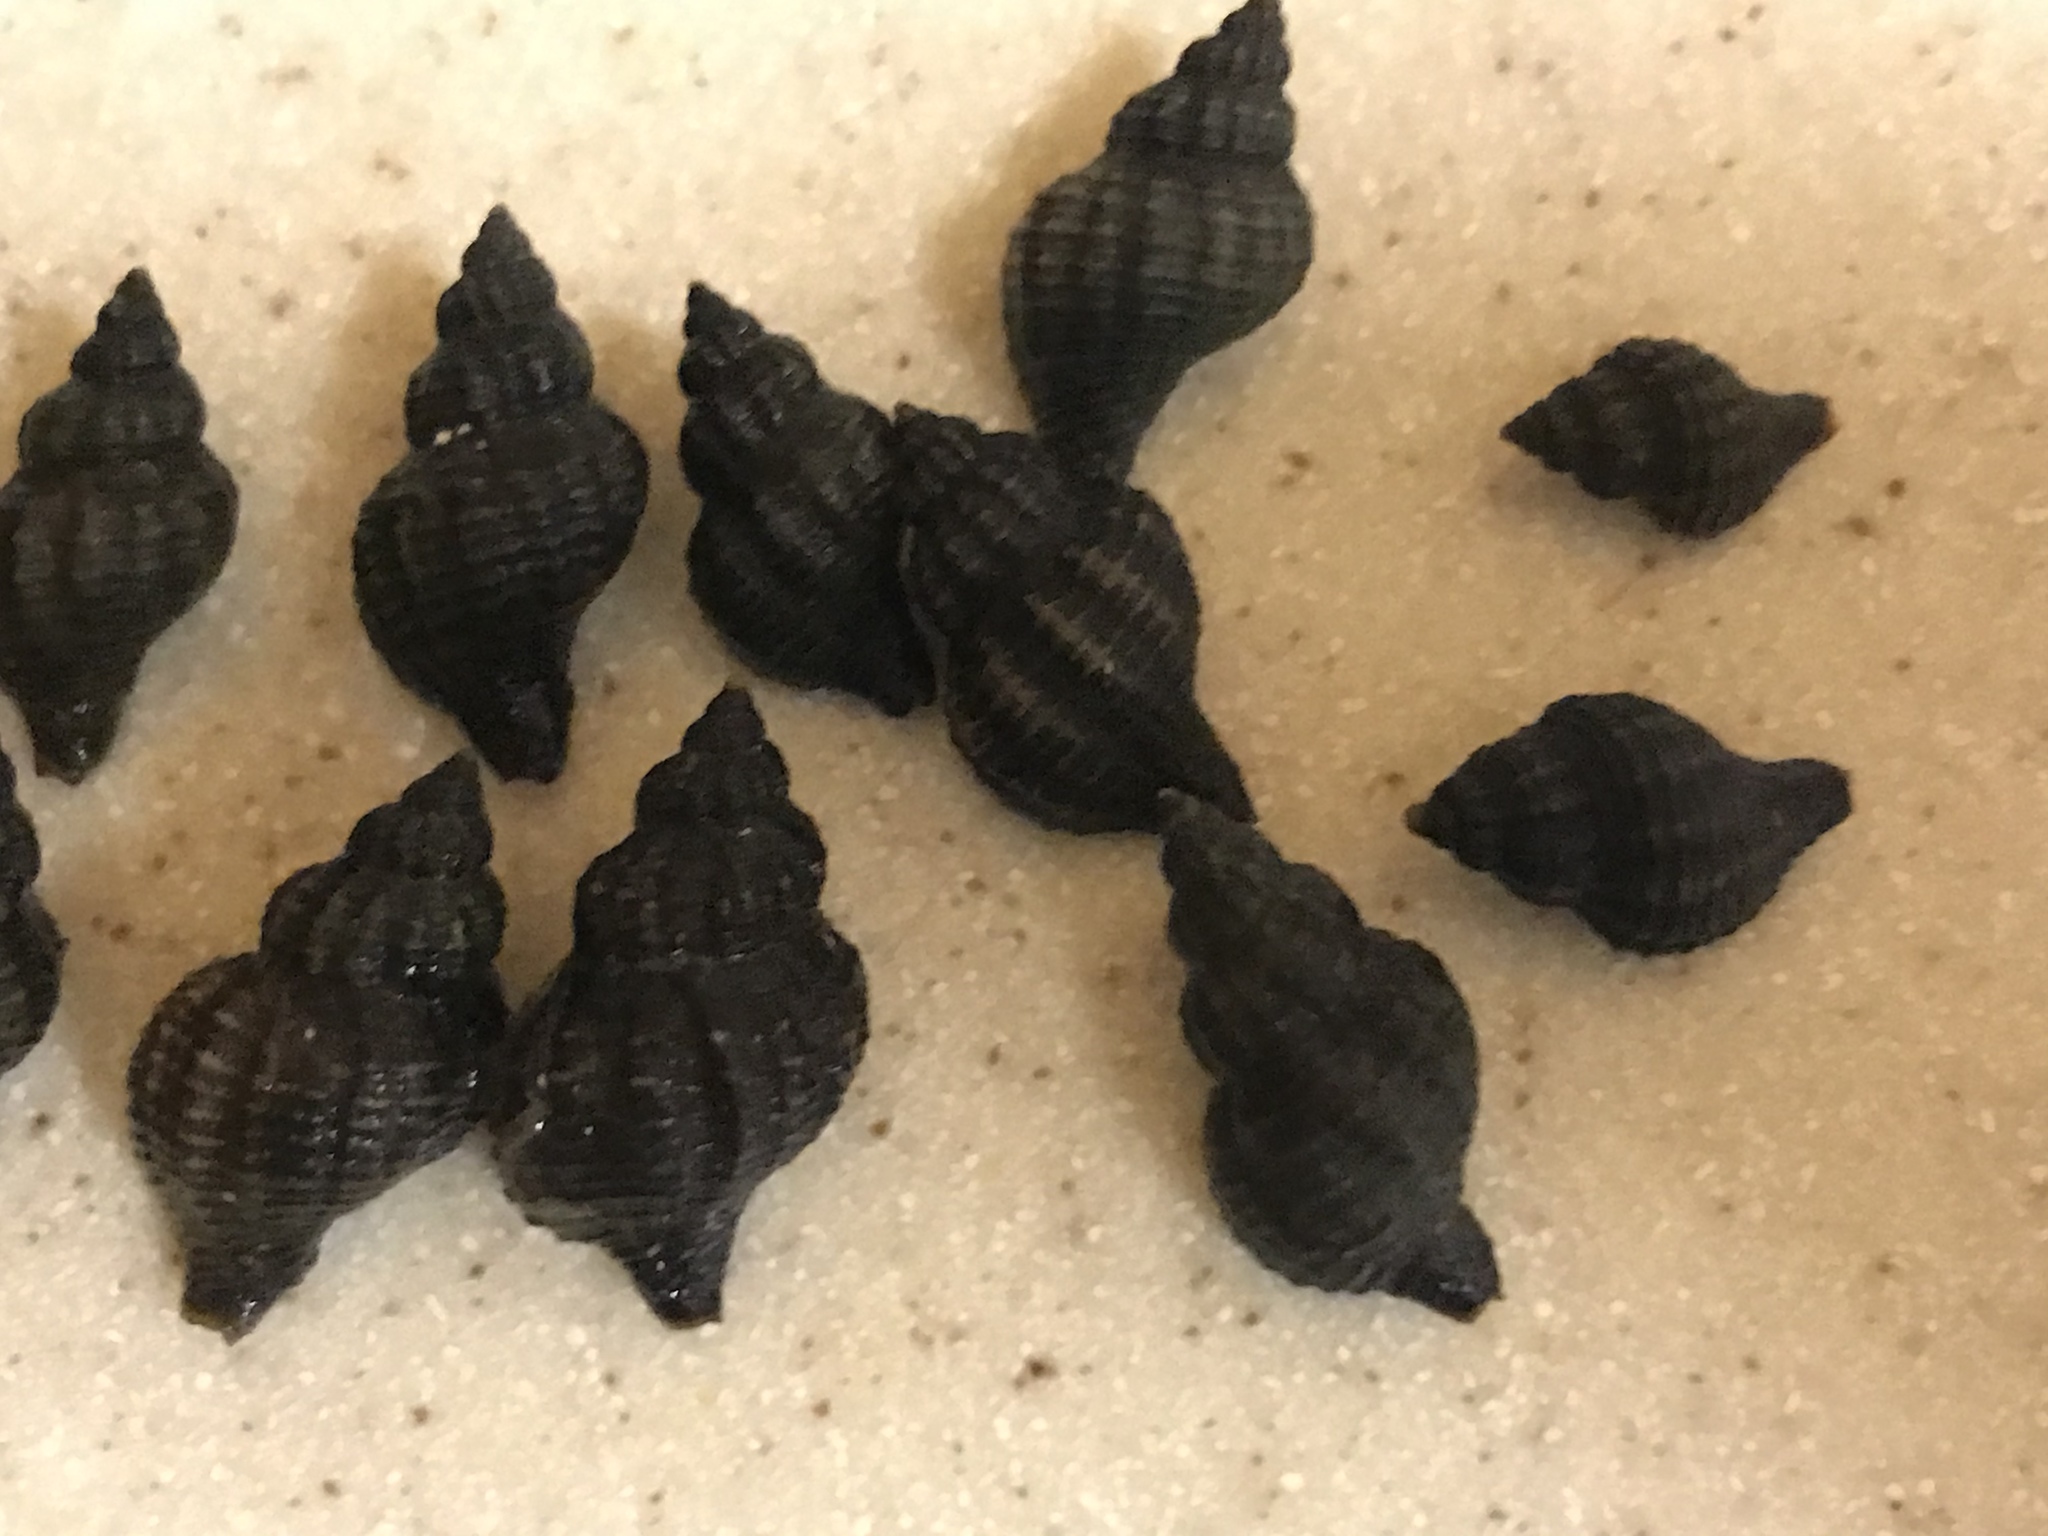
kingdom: Animalia
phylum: Mollusca
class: Gastropoda
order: Neogastropoda
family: Muricidae
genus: Urosalpinx
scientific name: Urosalpinx cinerea
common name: American sting winkle
